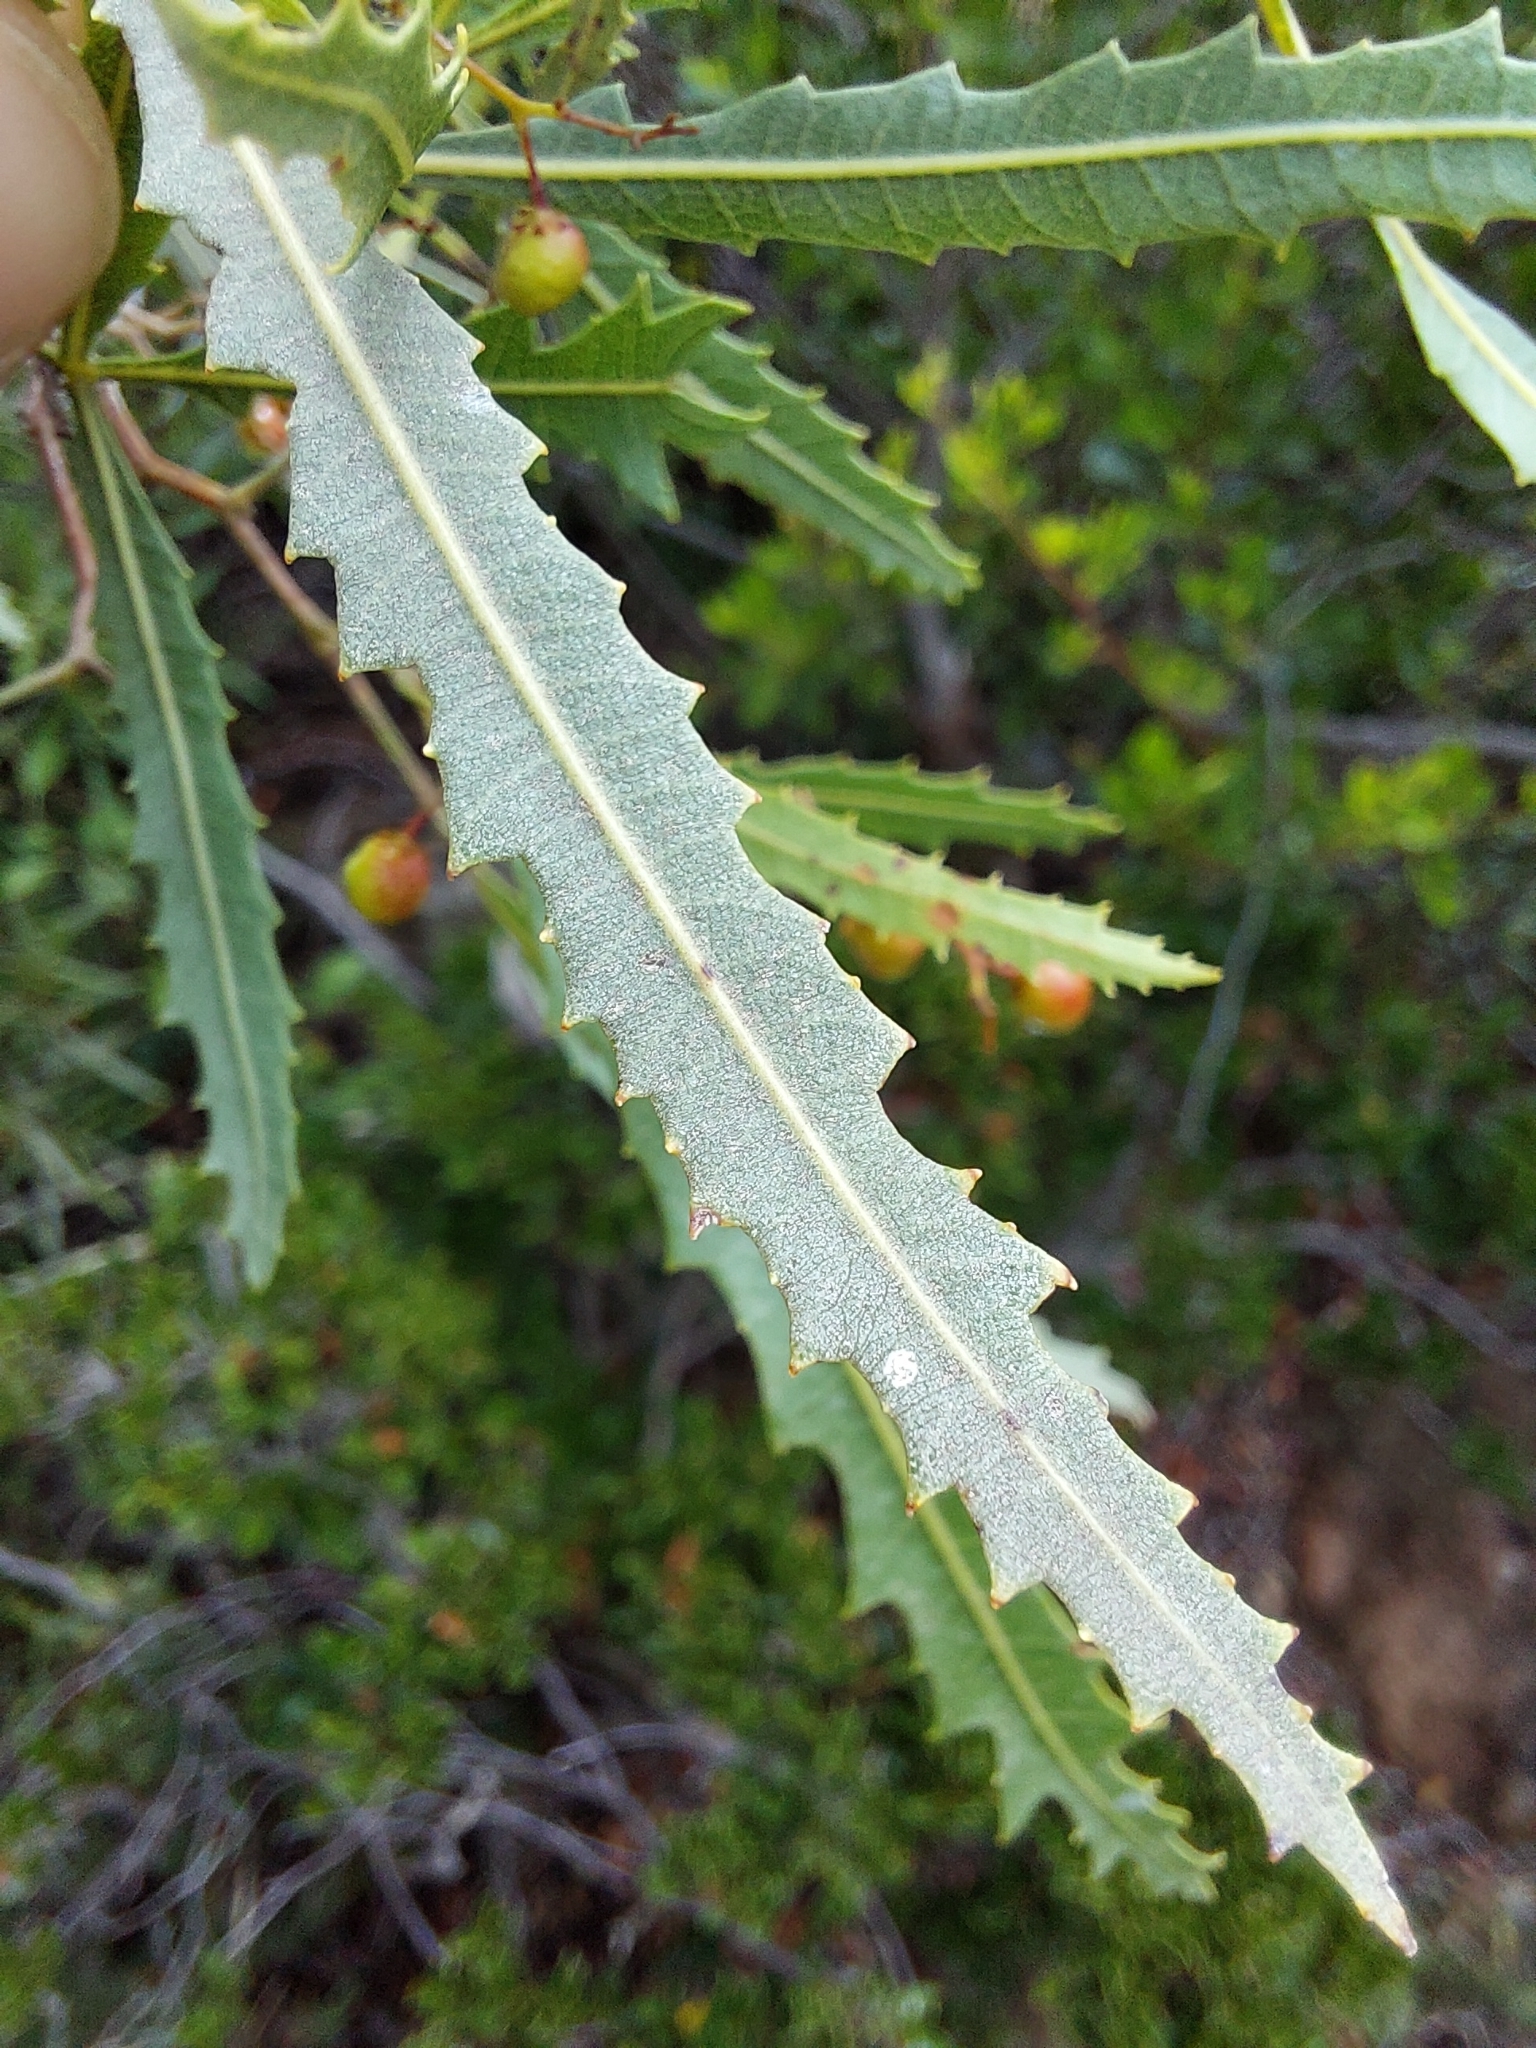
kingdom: Plantae
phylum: Tracheophyta
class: Magnoliopsida
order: Sapindales
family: Anacardiaceae
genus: Searsia
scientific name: Searsia erosa
